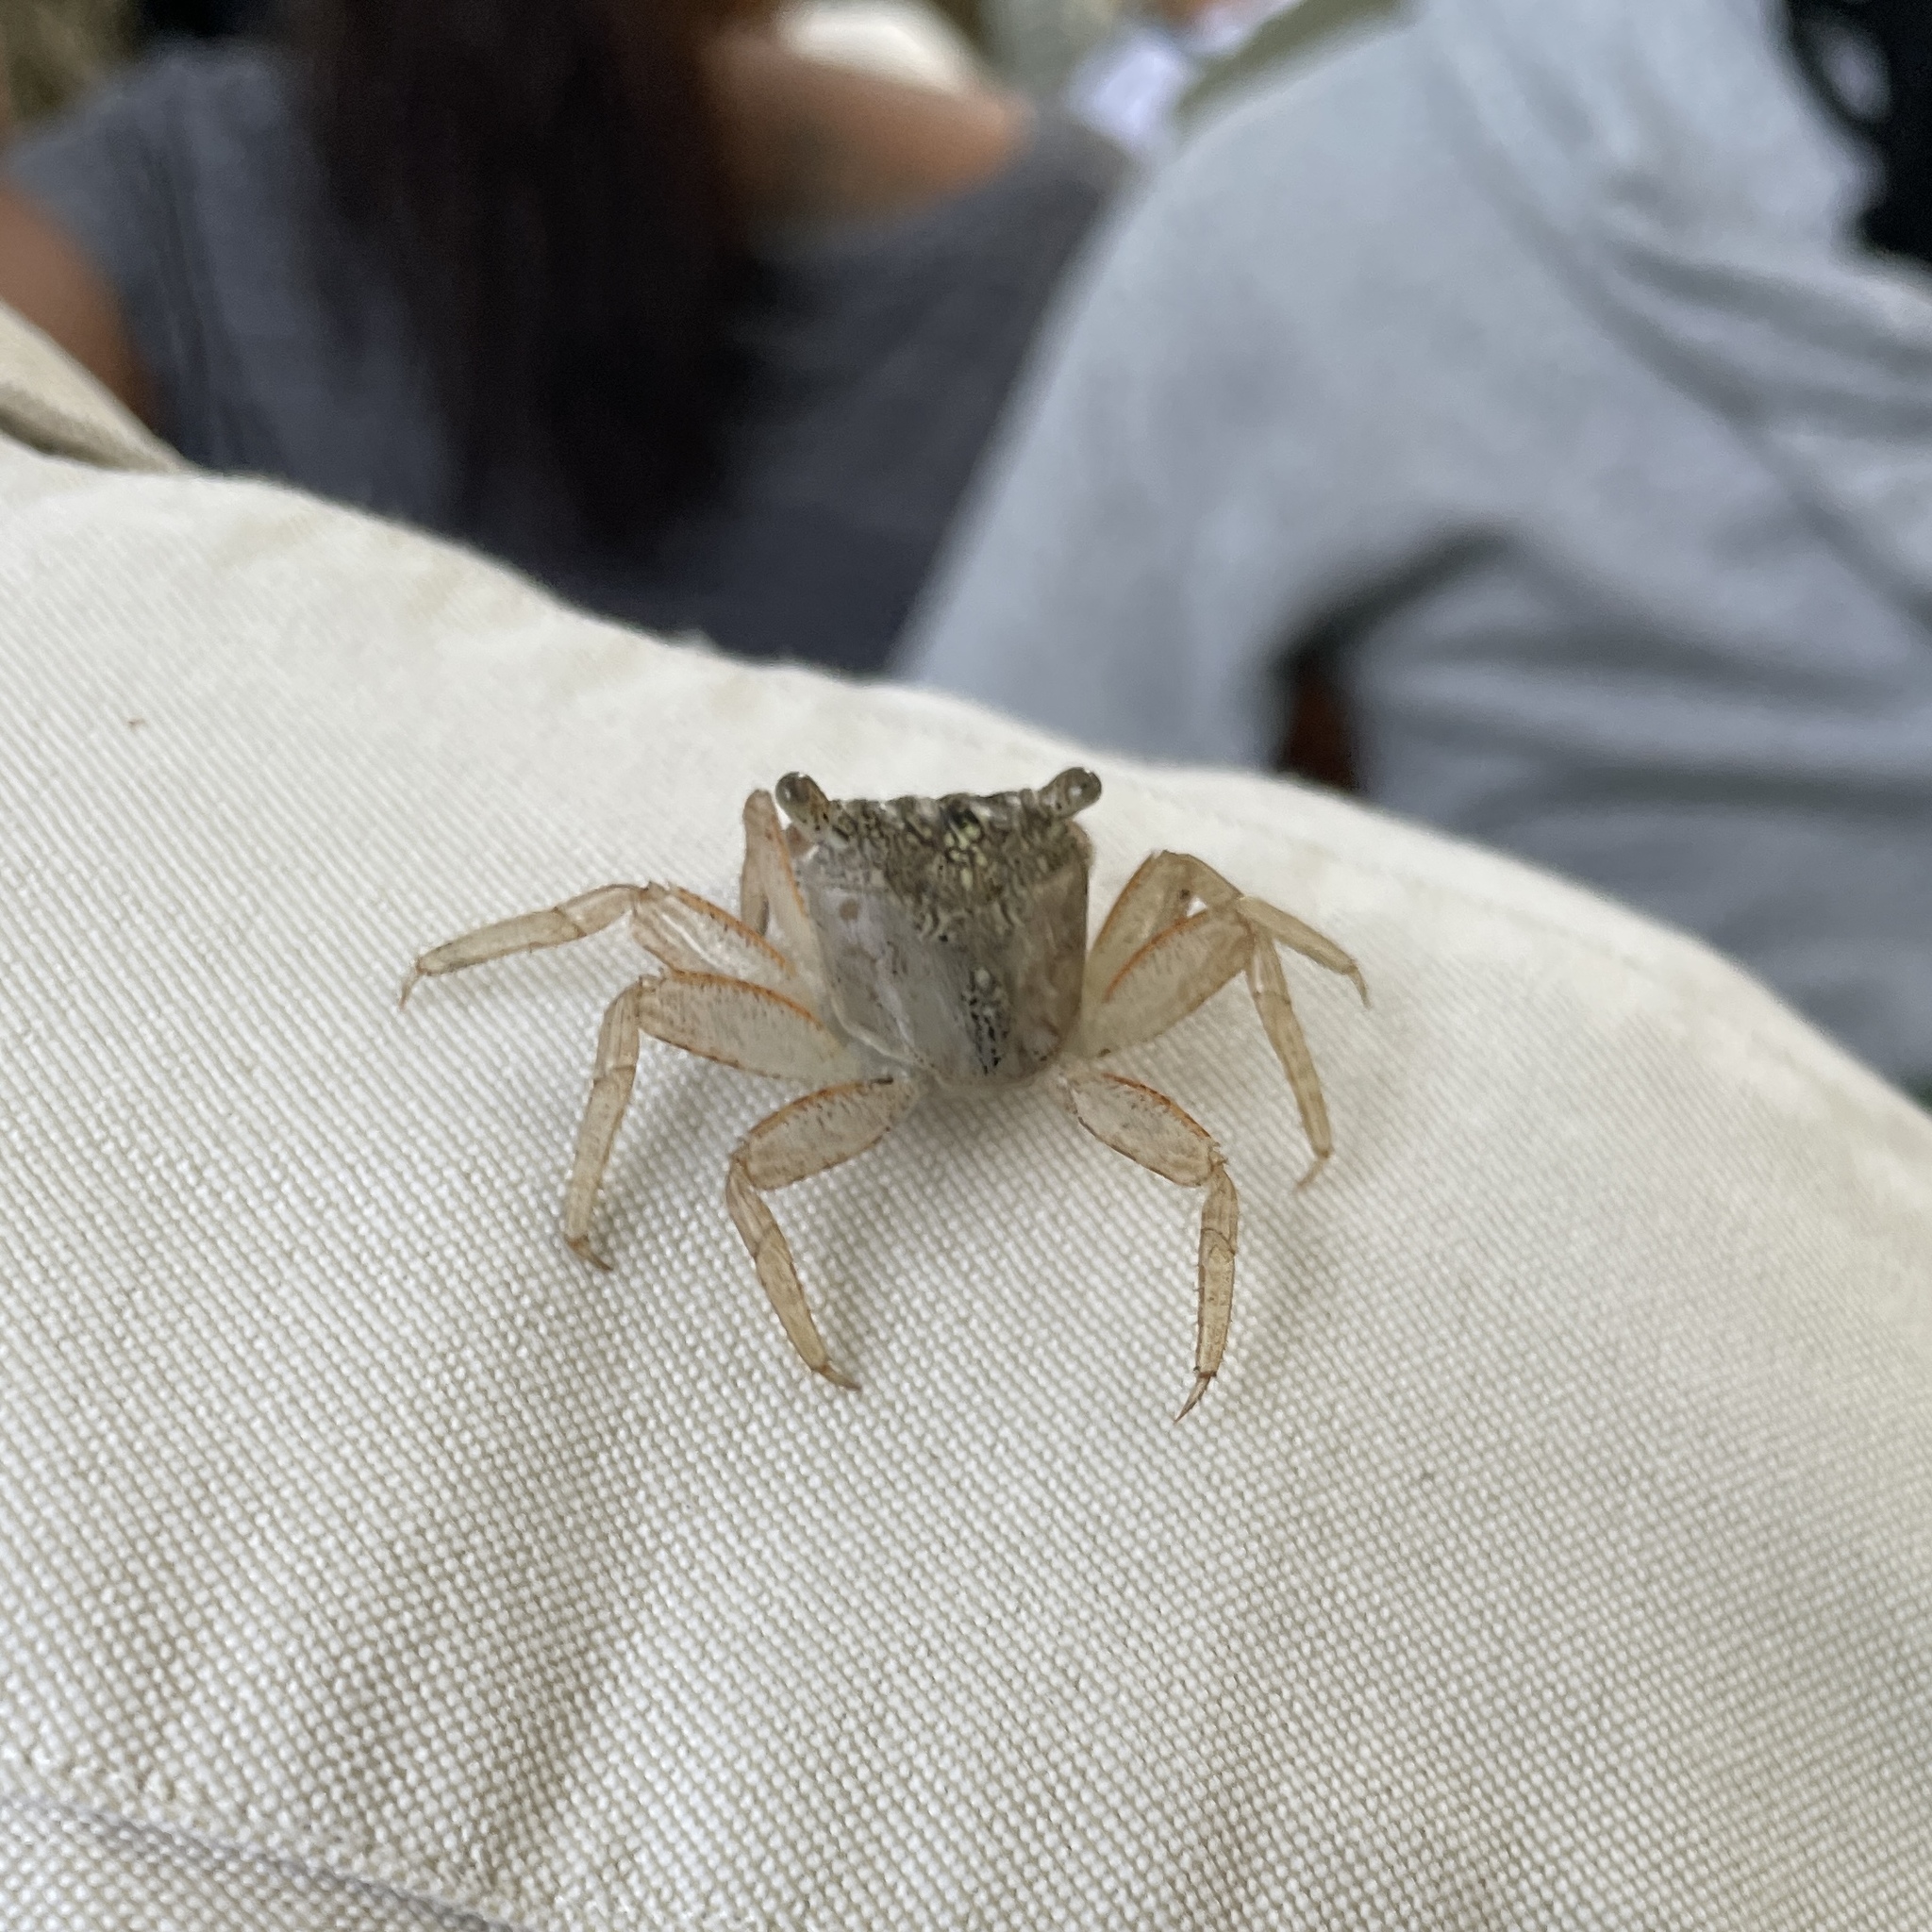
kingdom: Animalia
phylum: Arthropoda
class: Malacostraca
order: Decapoda
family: Sesarmidae
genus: Aratus
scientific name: Aratus pisonii
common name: Mangrove crab
